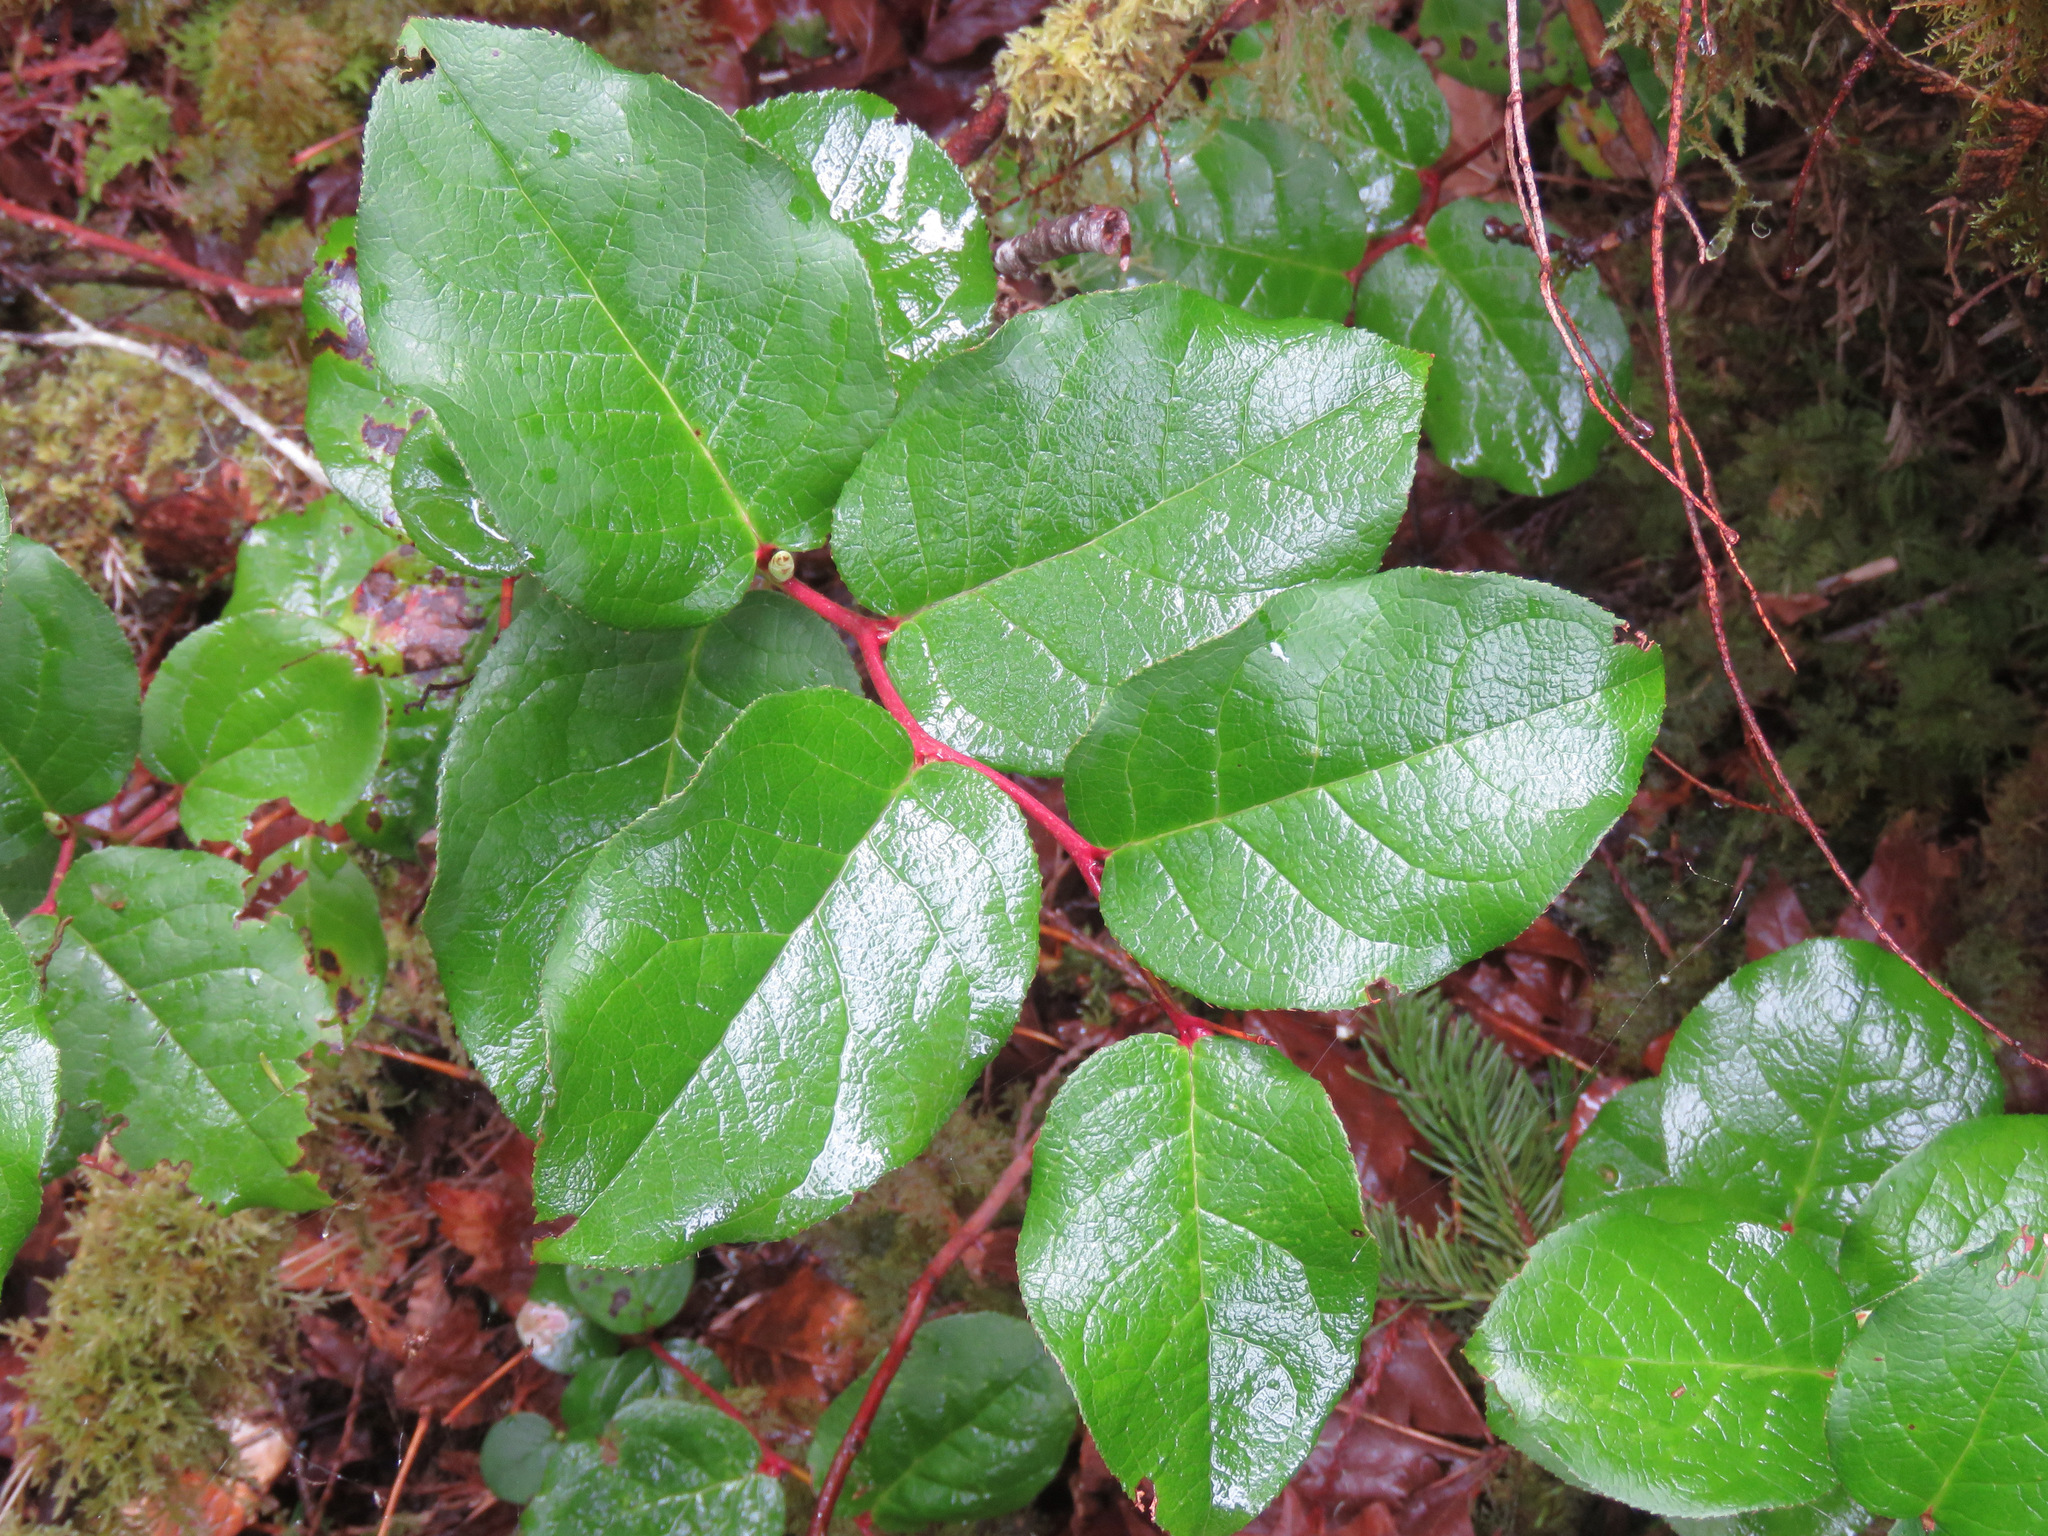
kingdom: Plantae
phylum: Tracheophyta
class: Magnoliopsida
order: Ericales
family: Ericaceae
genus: Gaultheria
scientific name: Gaultheria shallon
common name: Shallon
